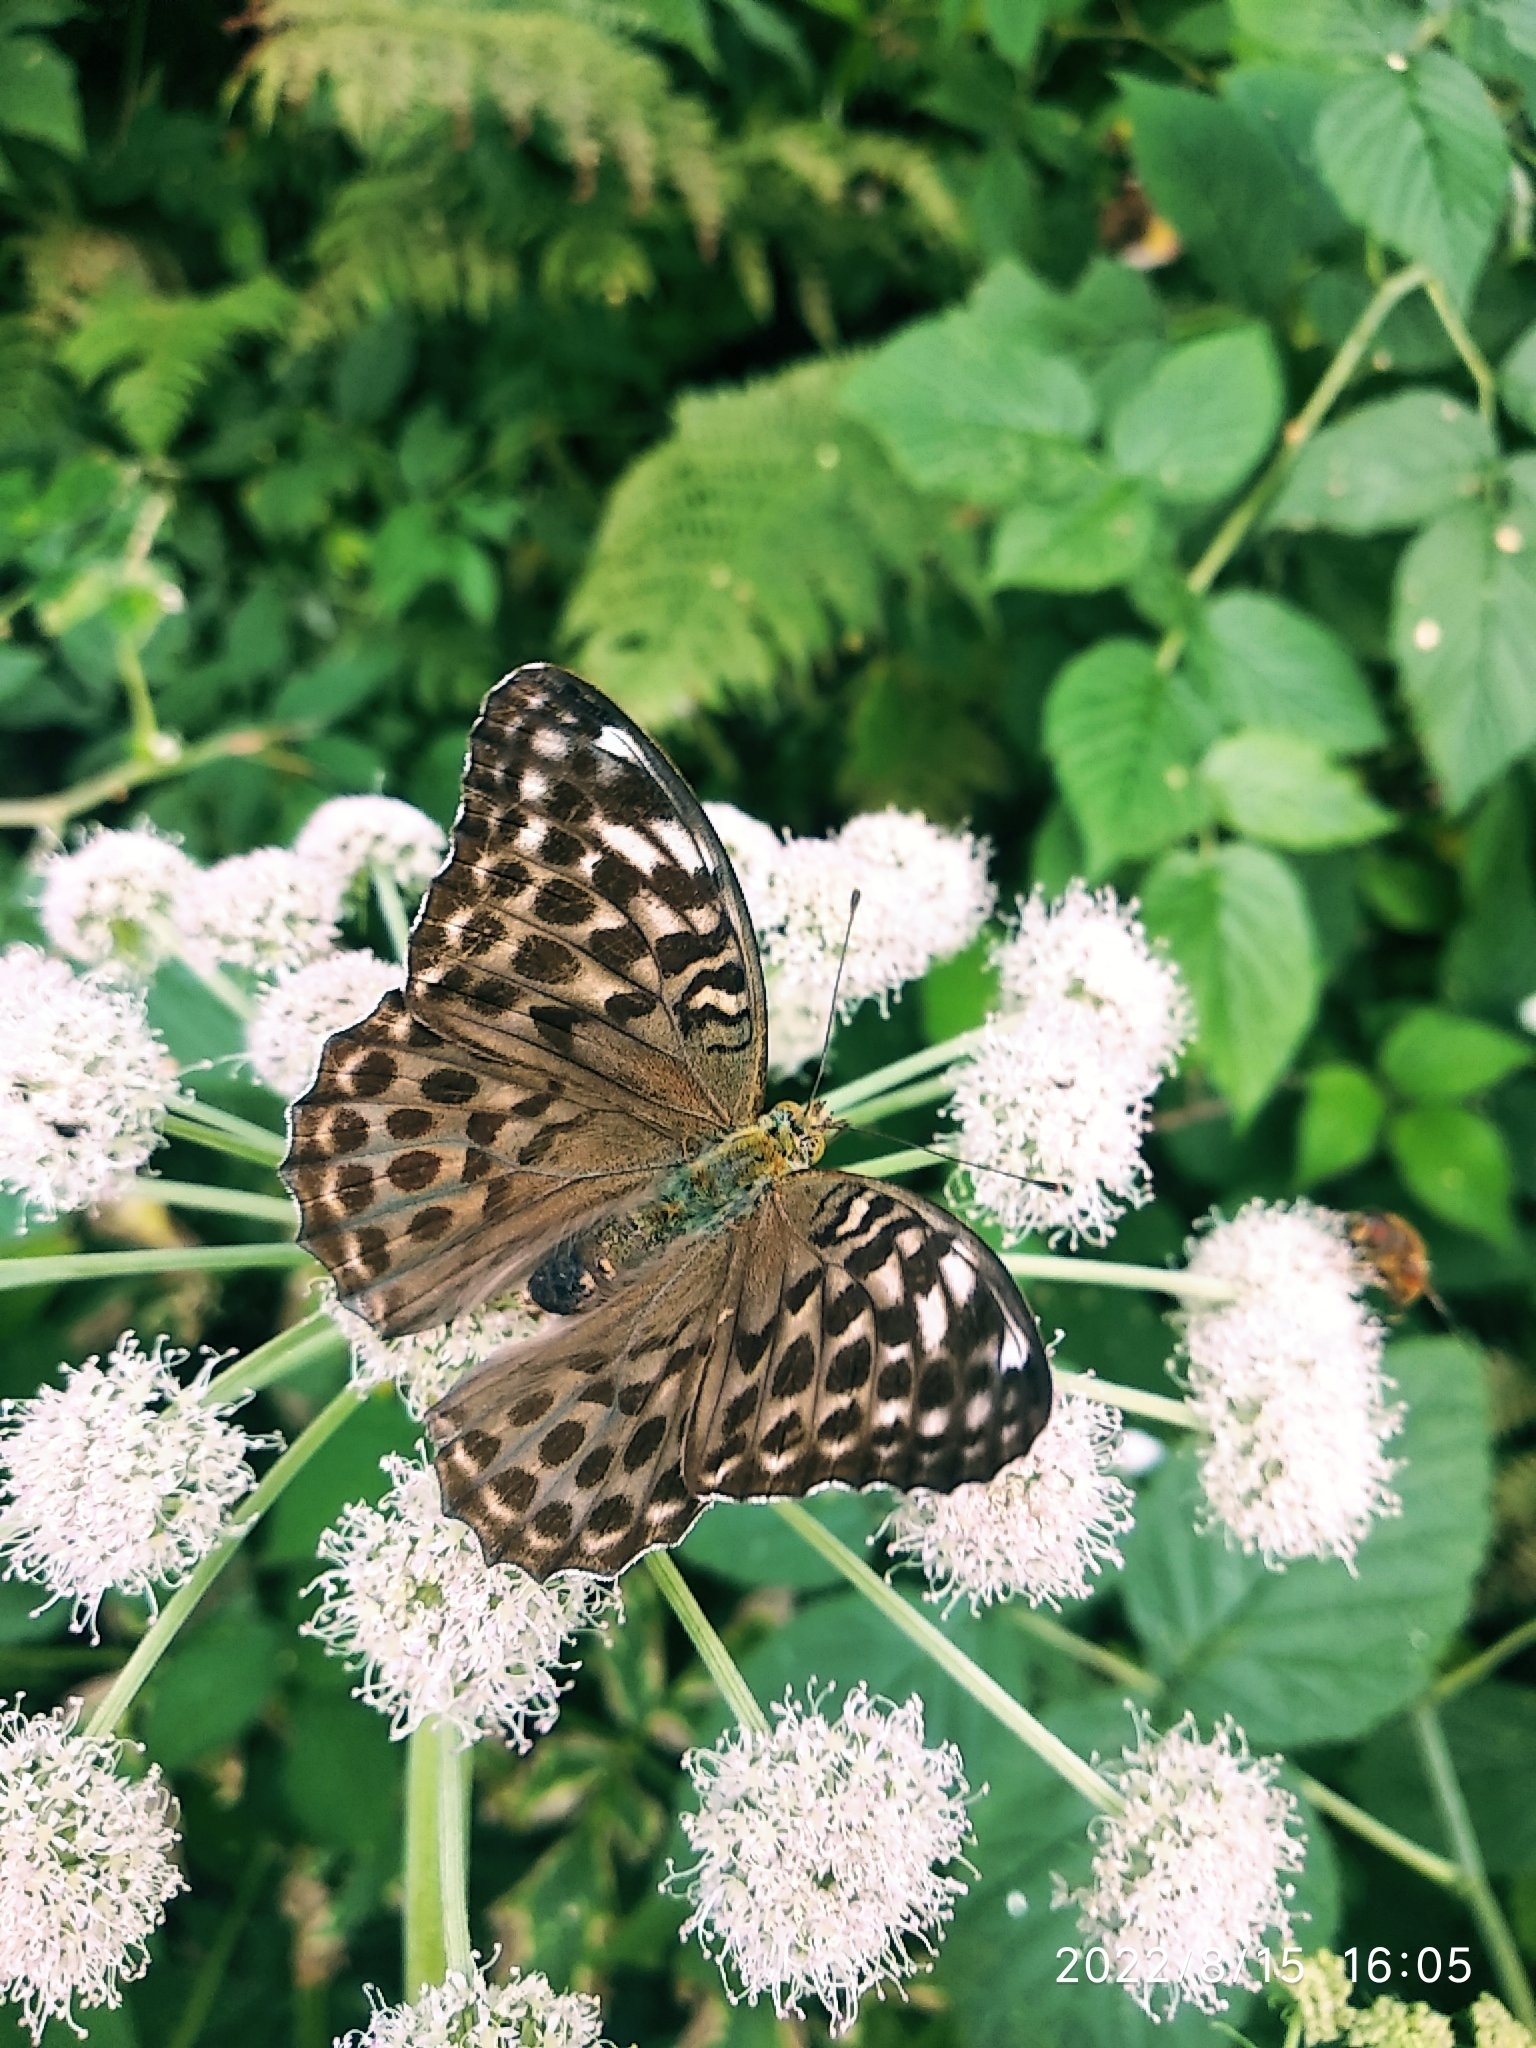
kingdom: Animalia
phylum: Arthropoda
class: Insecta
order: Lepidoptera
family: Nymphalidae
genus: Argynnis
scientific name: Argynnis paphia
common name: Silver-washed fritillary
